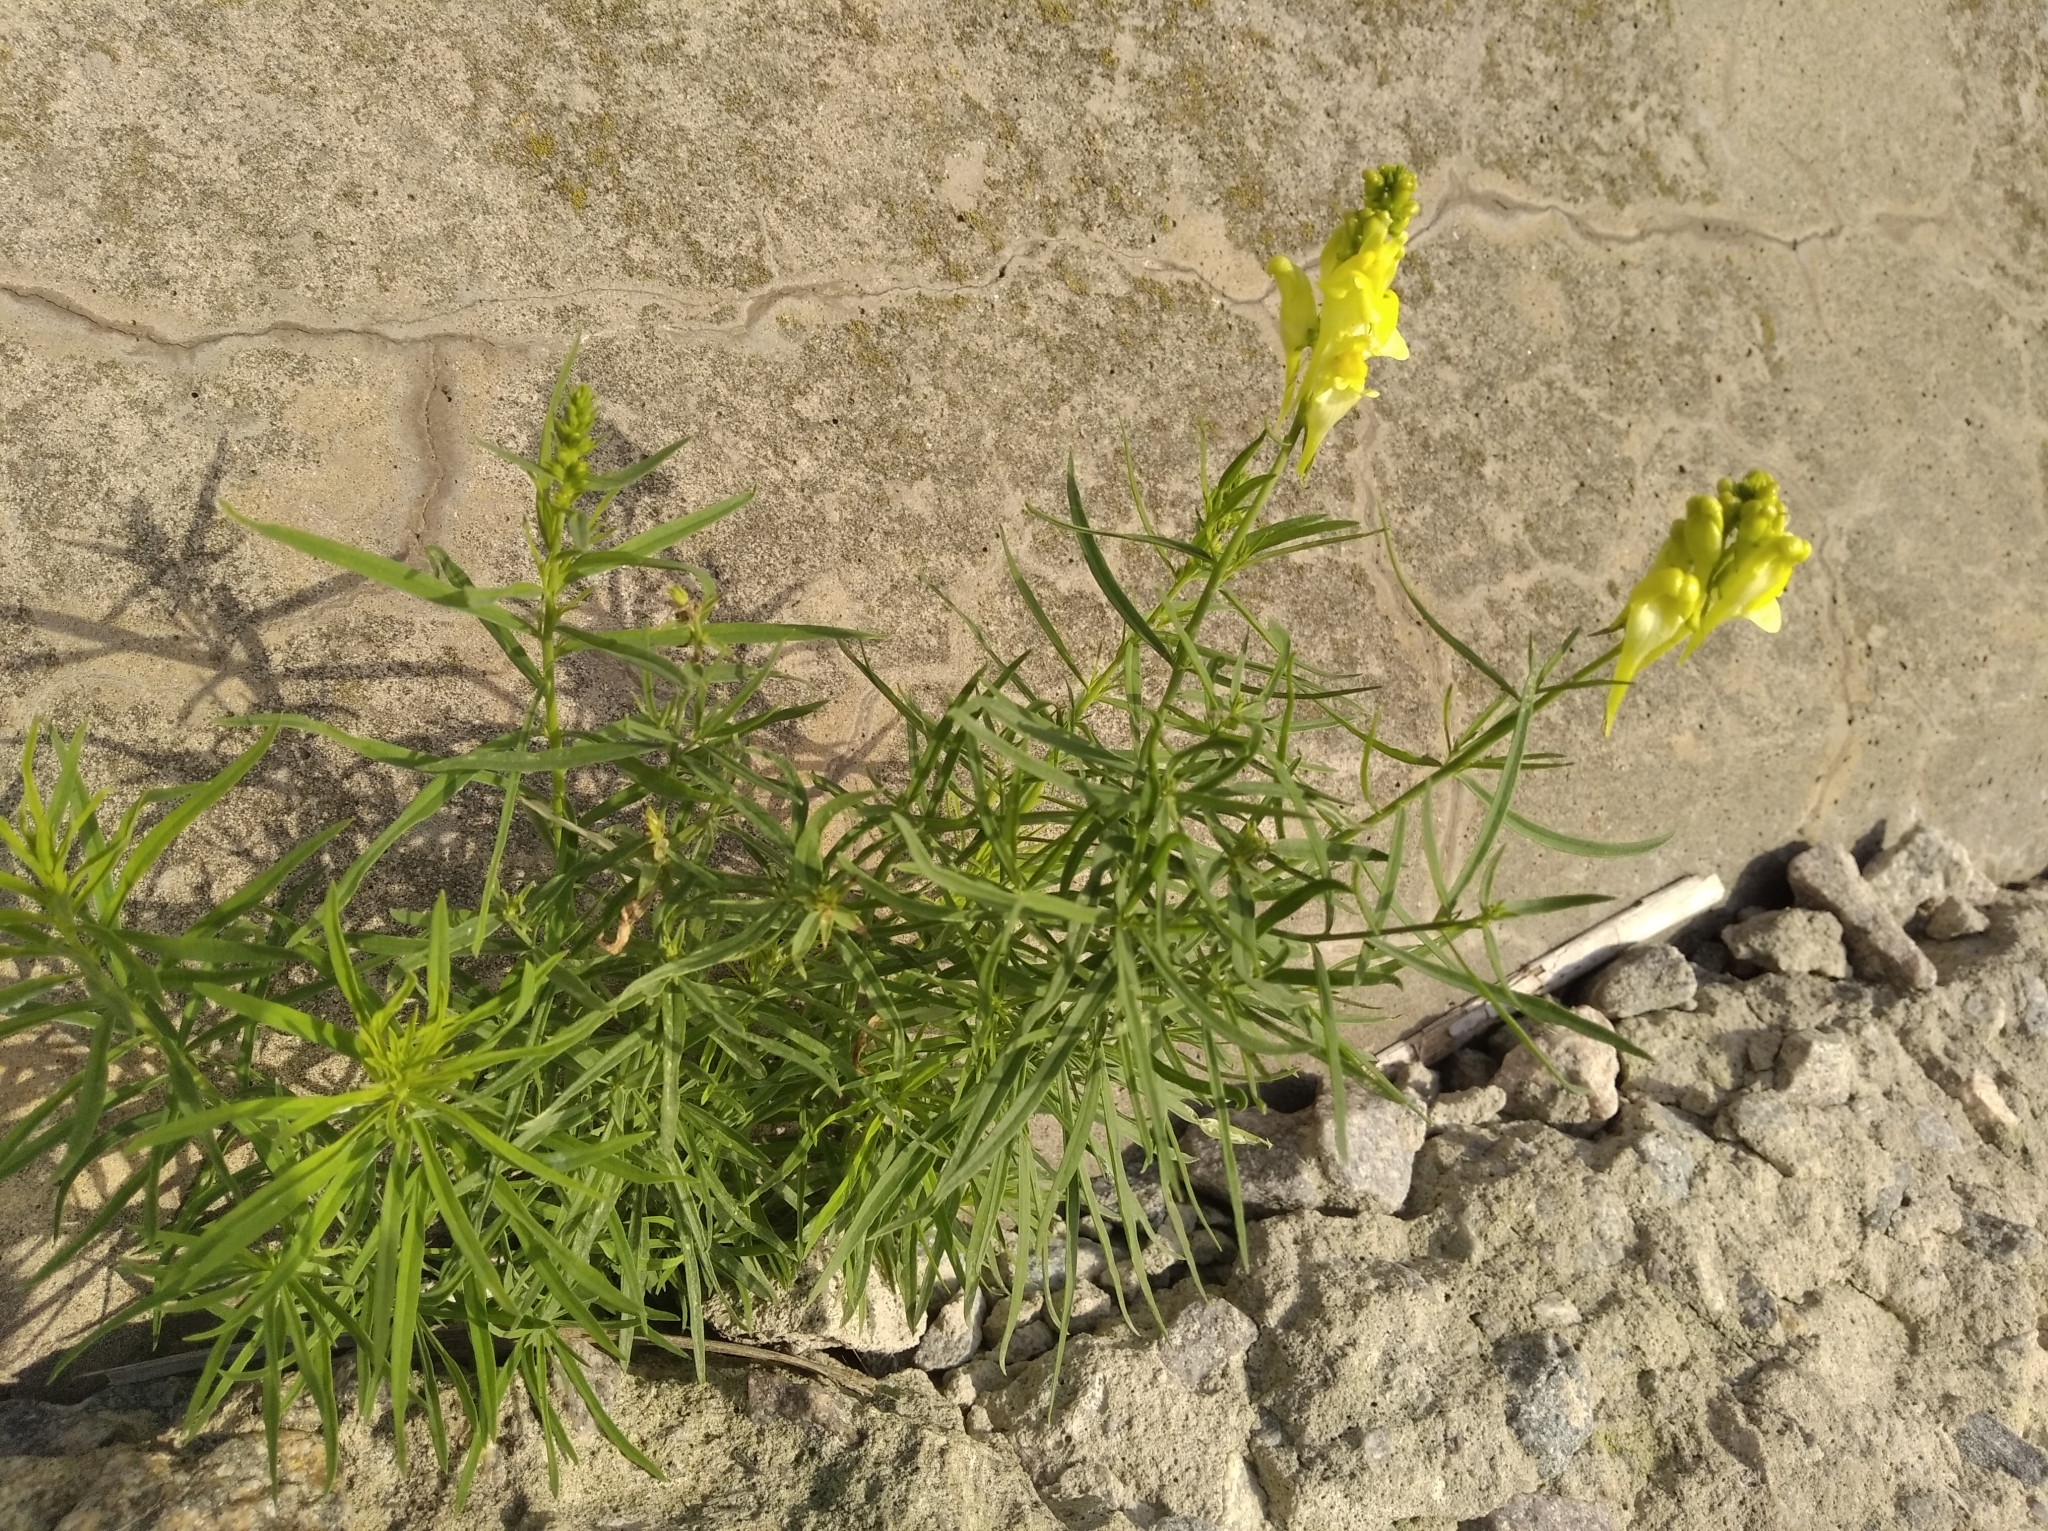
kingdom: Plantae
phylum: Tracheophyta
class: Magnoliopsida
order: Lamiales
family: Plantaginaceae
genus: Linaria
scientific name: Linaria vulgaris
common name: Butter and eggs
